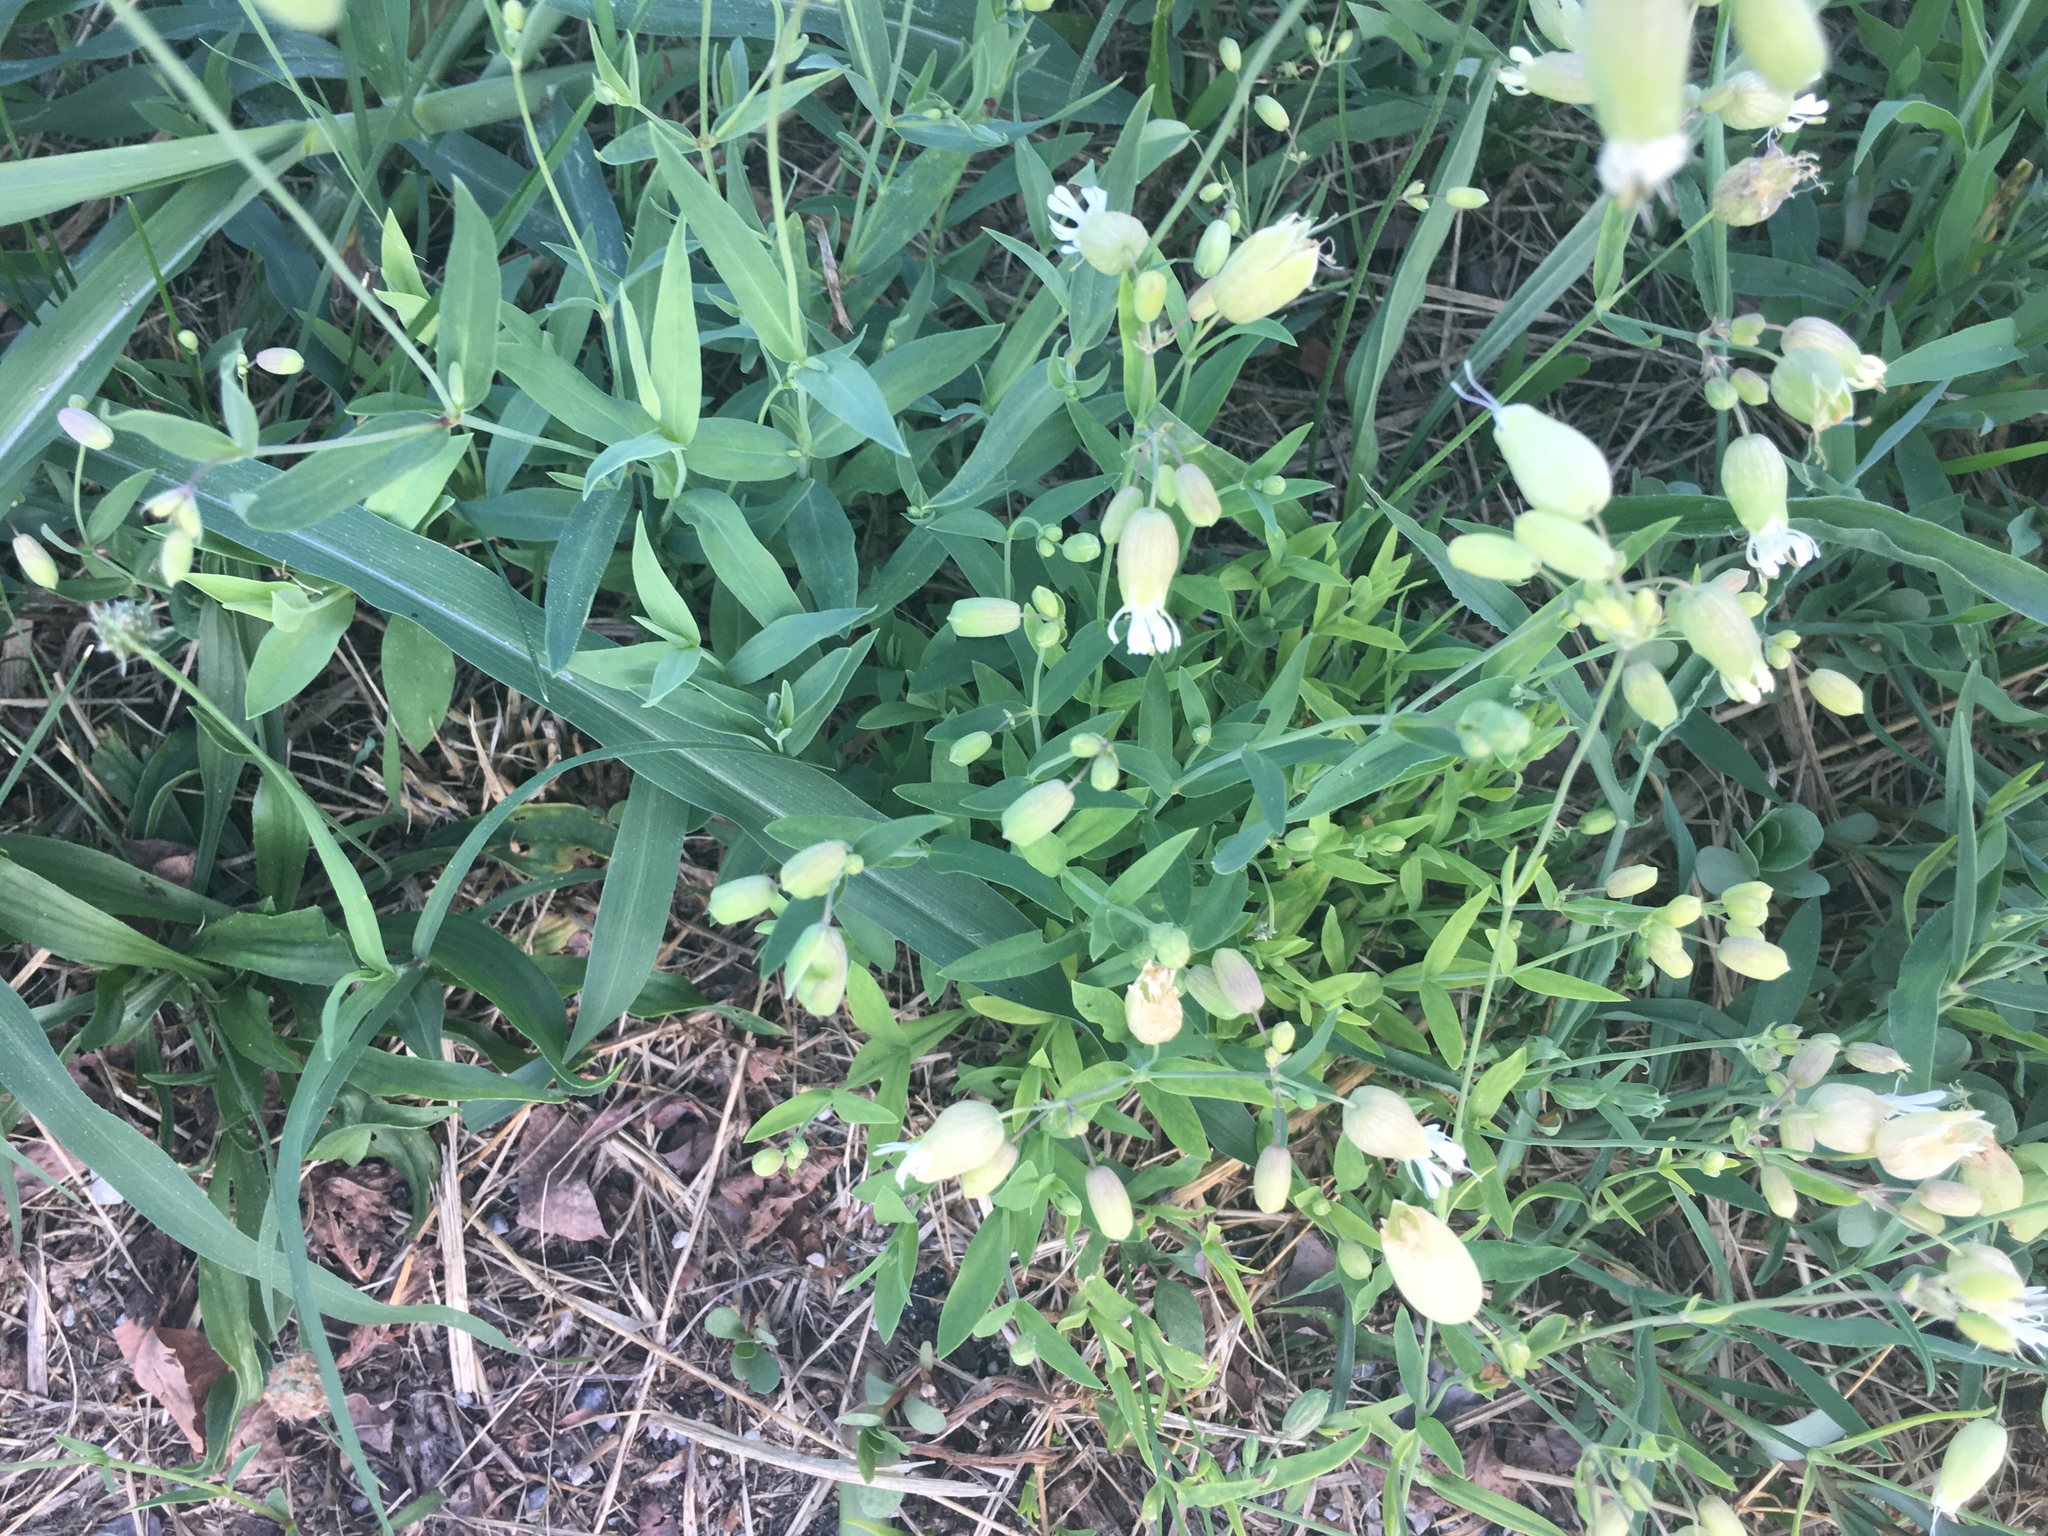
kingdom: Plantae
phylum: Tracheophyta
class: Magnoliopsida
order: Caryophyllales
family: Caryophyllaceae
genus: Silene
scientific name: Silene vulgaris
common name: Bladder campion
